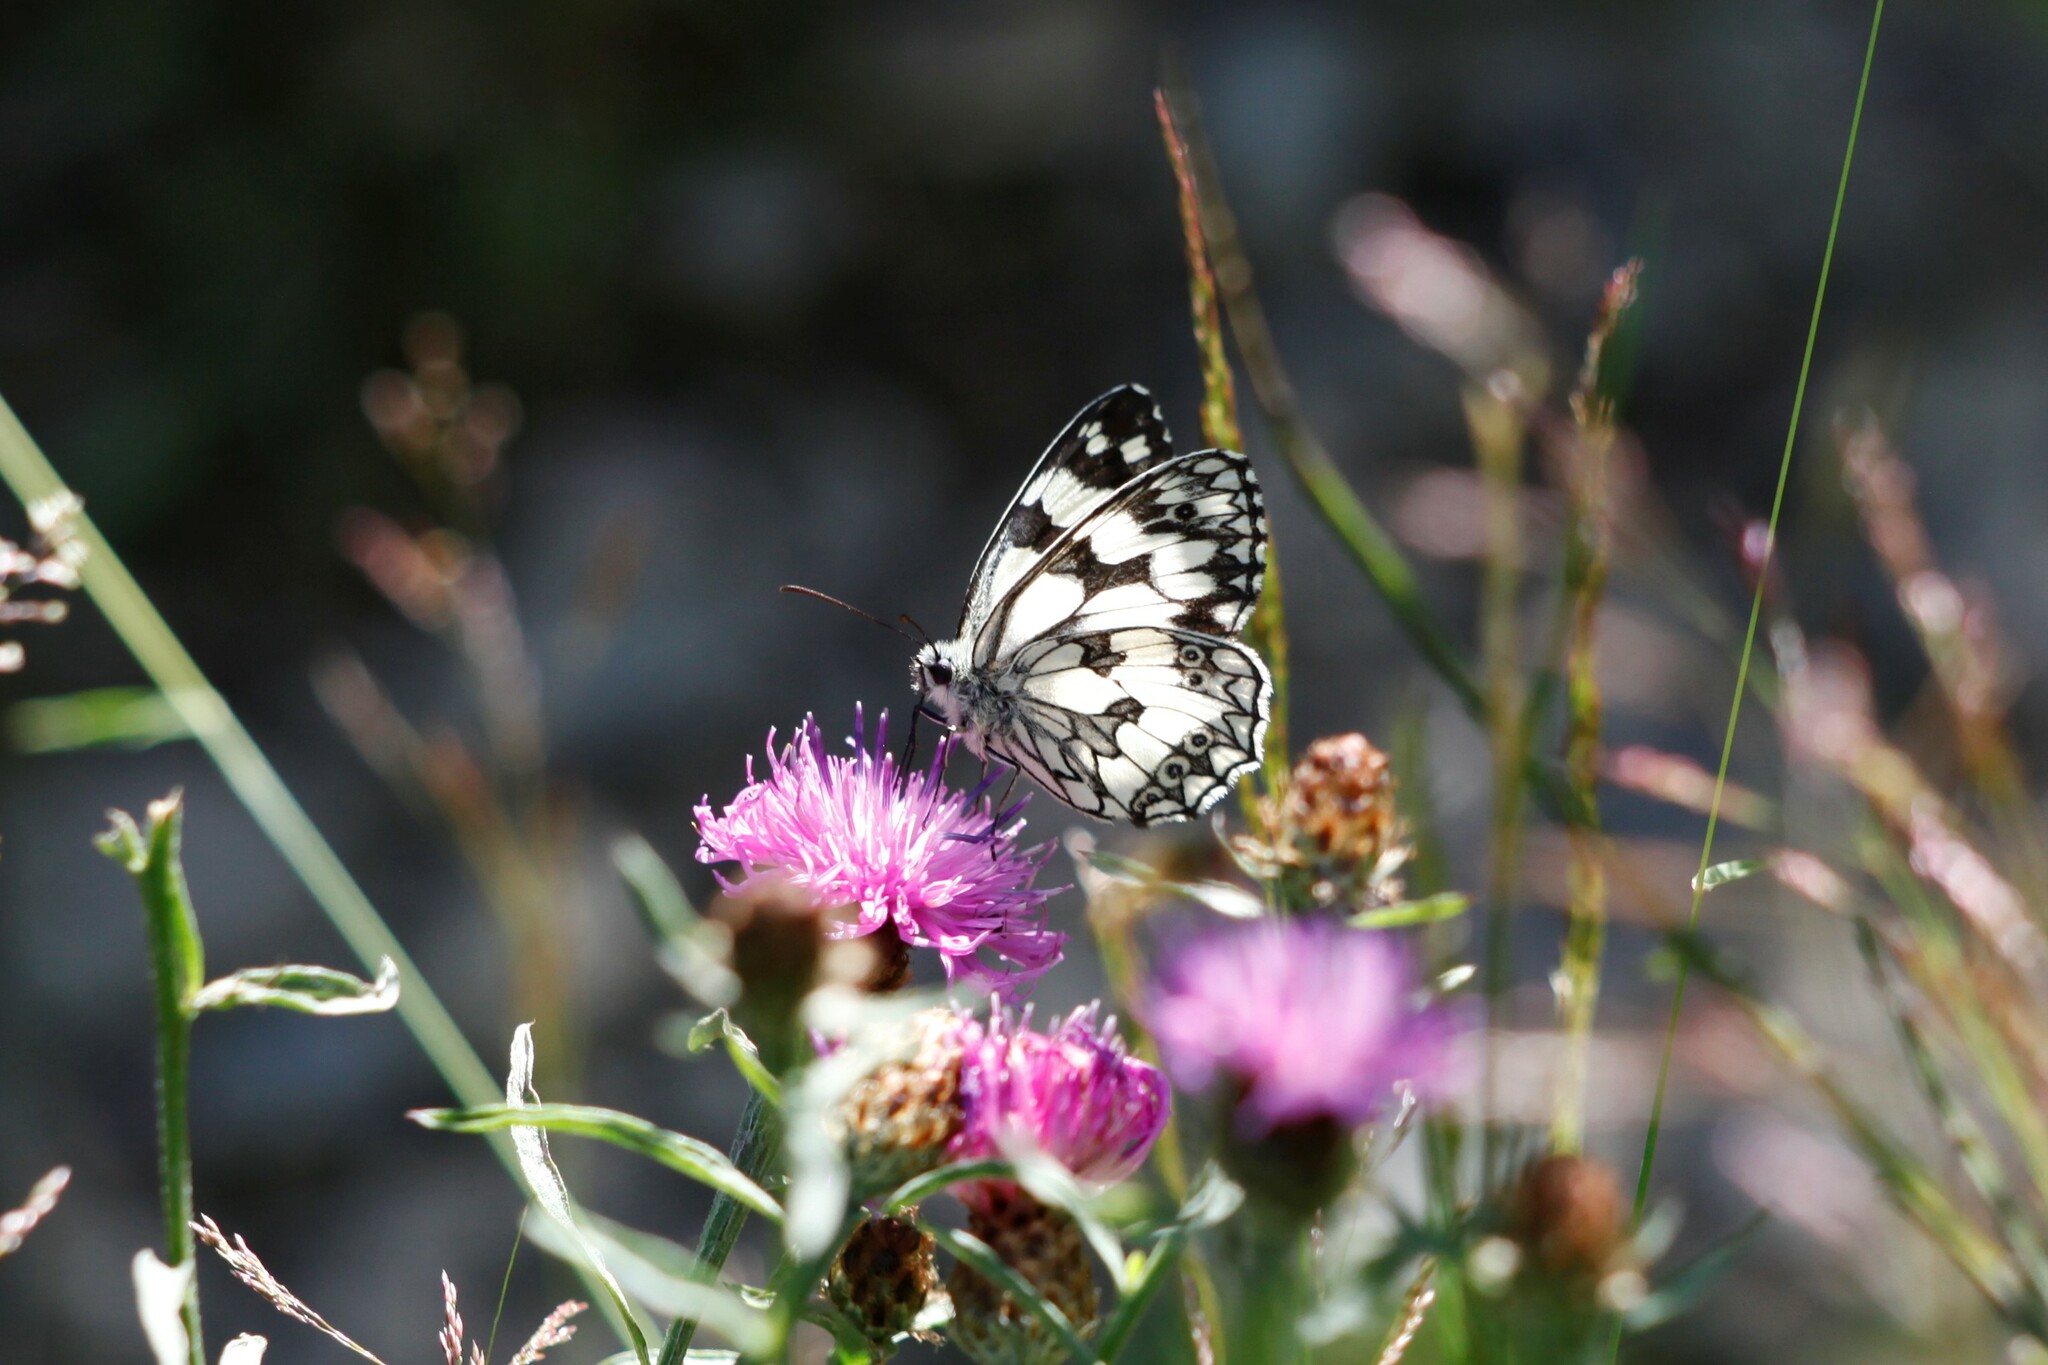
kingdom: Animalia
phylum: Arthropoda
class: Insecta
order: Lepidoptera
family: Nymphalidae
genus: Melanargia
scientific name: Melanargia galathea
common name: Marbled white
